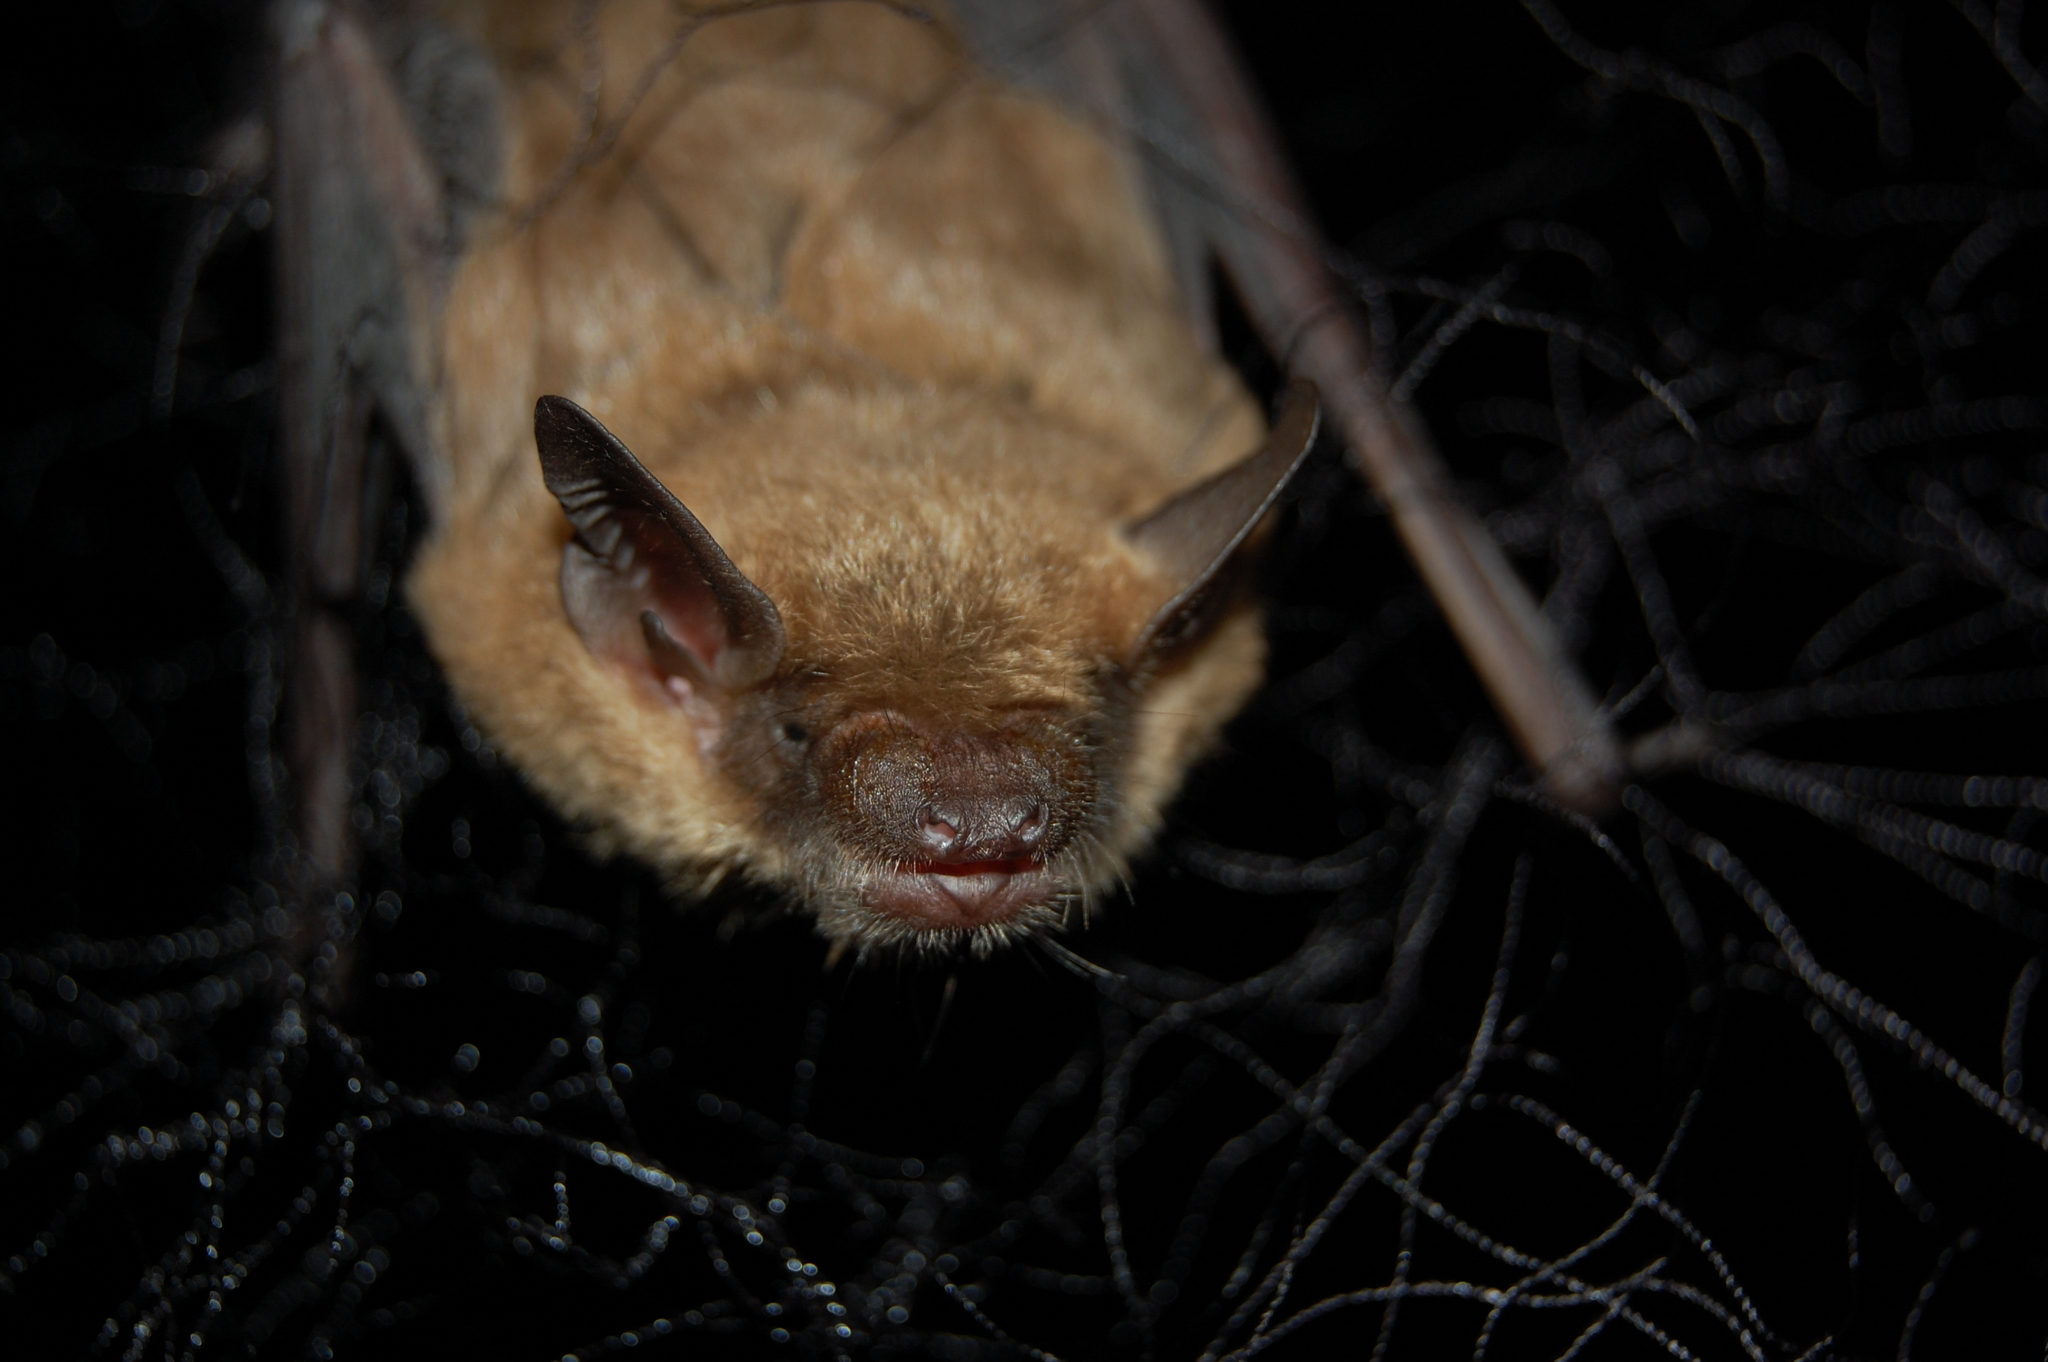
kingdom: Animalia
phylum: Chordata
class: Mammalia
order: Chiroptera
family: Vespertilionidae
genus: Eptesicus
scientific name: Eptesicus fuscus
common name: Big brown bat
